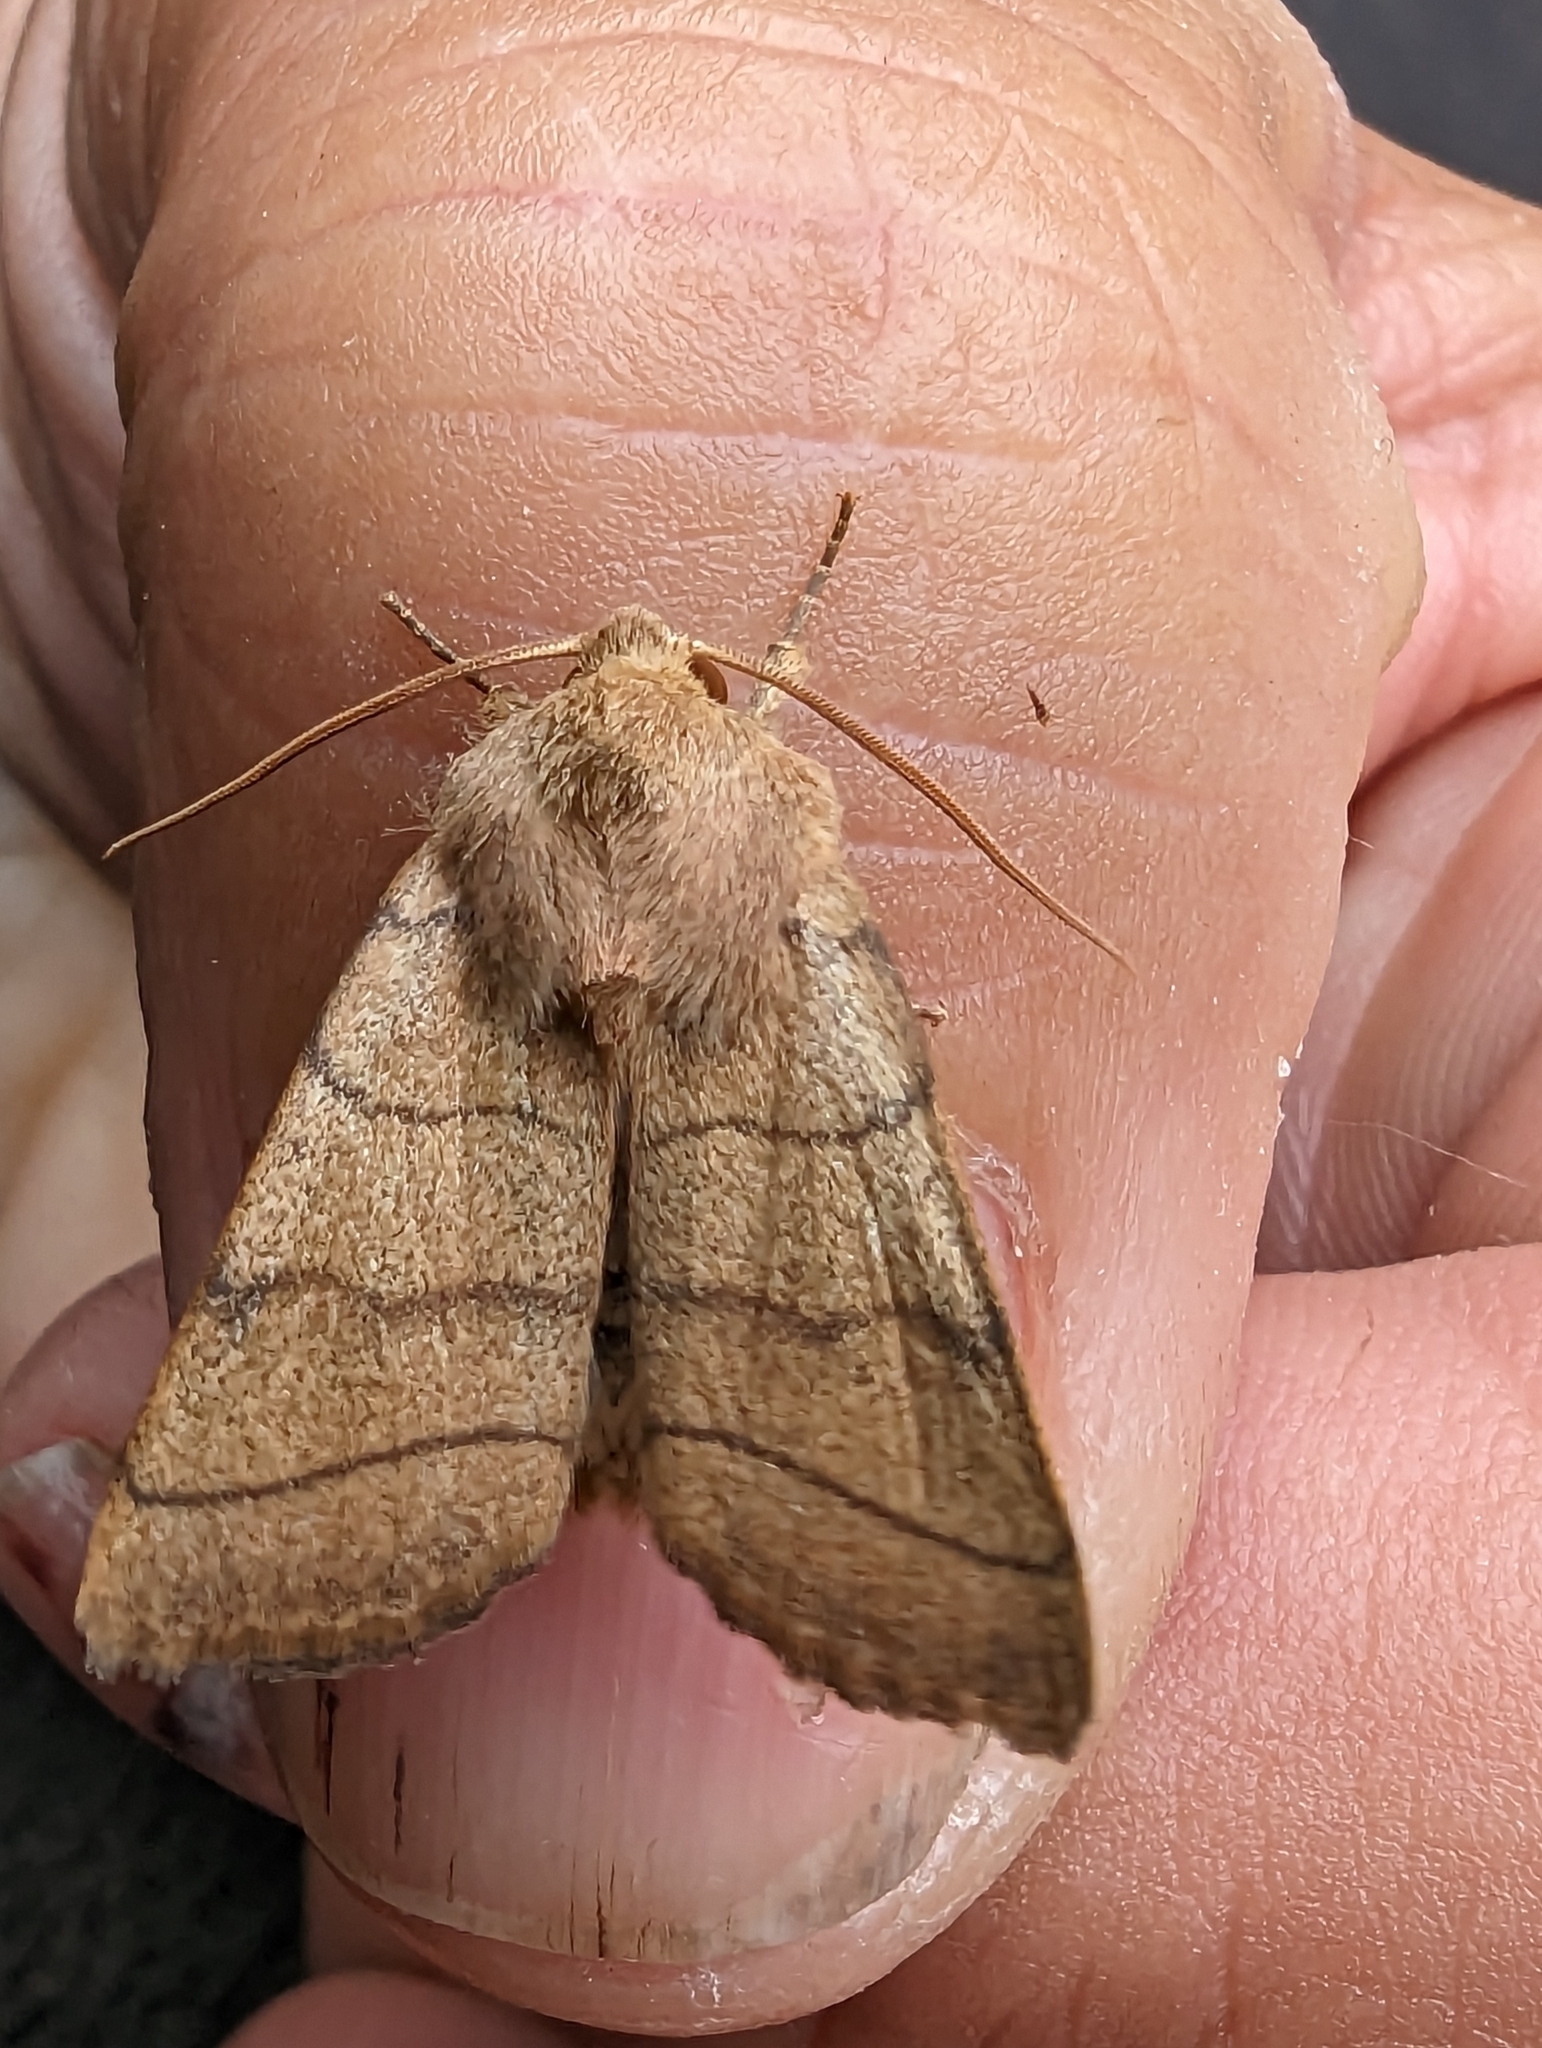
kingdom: Animalia
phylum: Arthropoda
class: Insecta
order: Lepidoptera
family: Noctuidae
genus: Charanyca
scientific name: Charanyca trigrammica
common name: Treble lines
